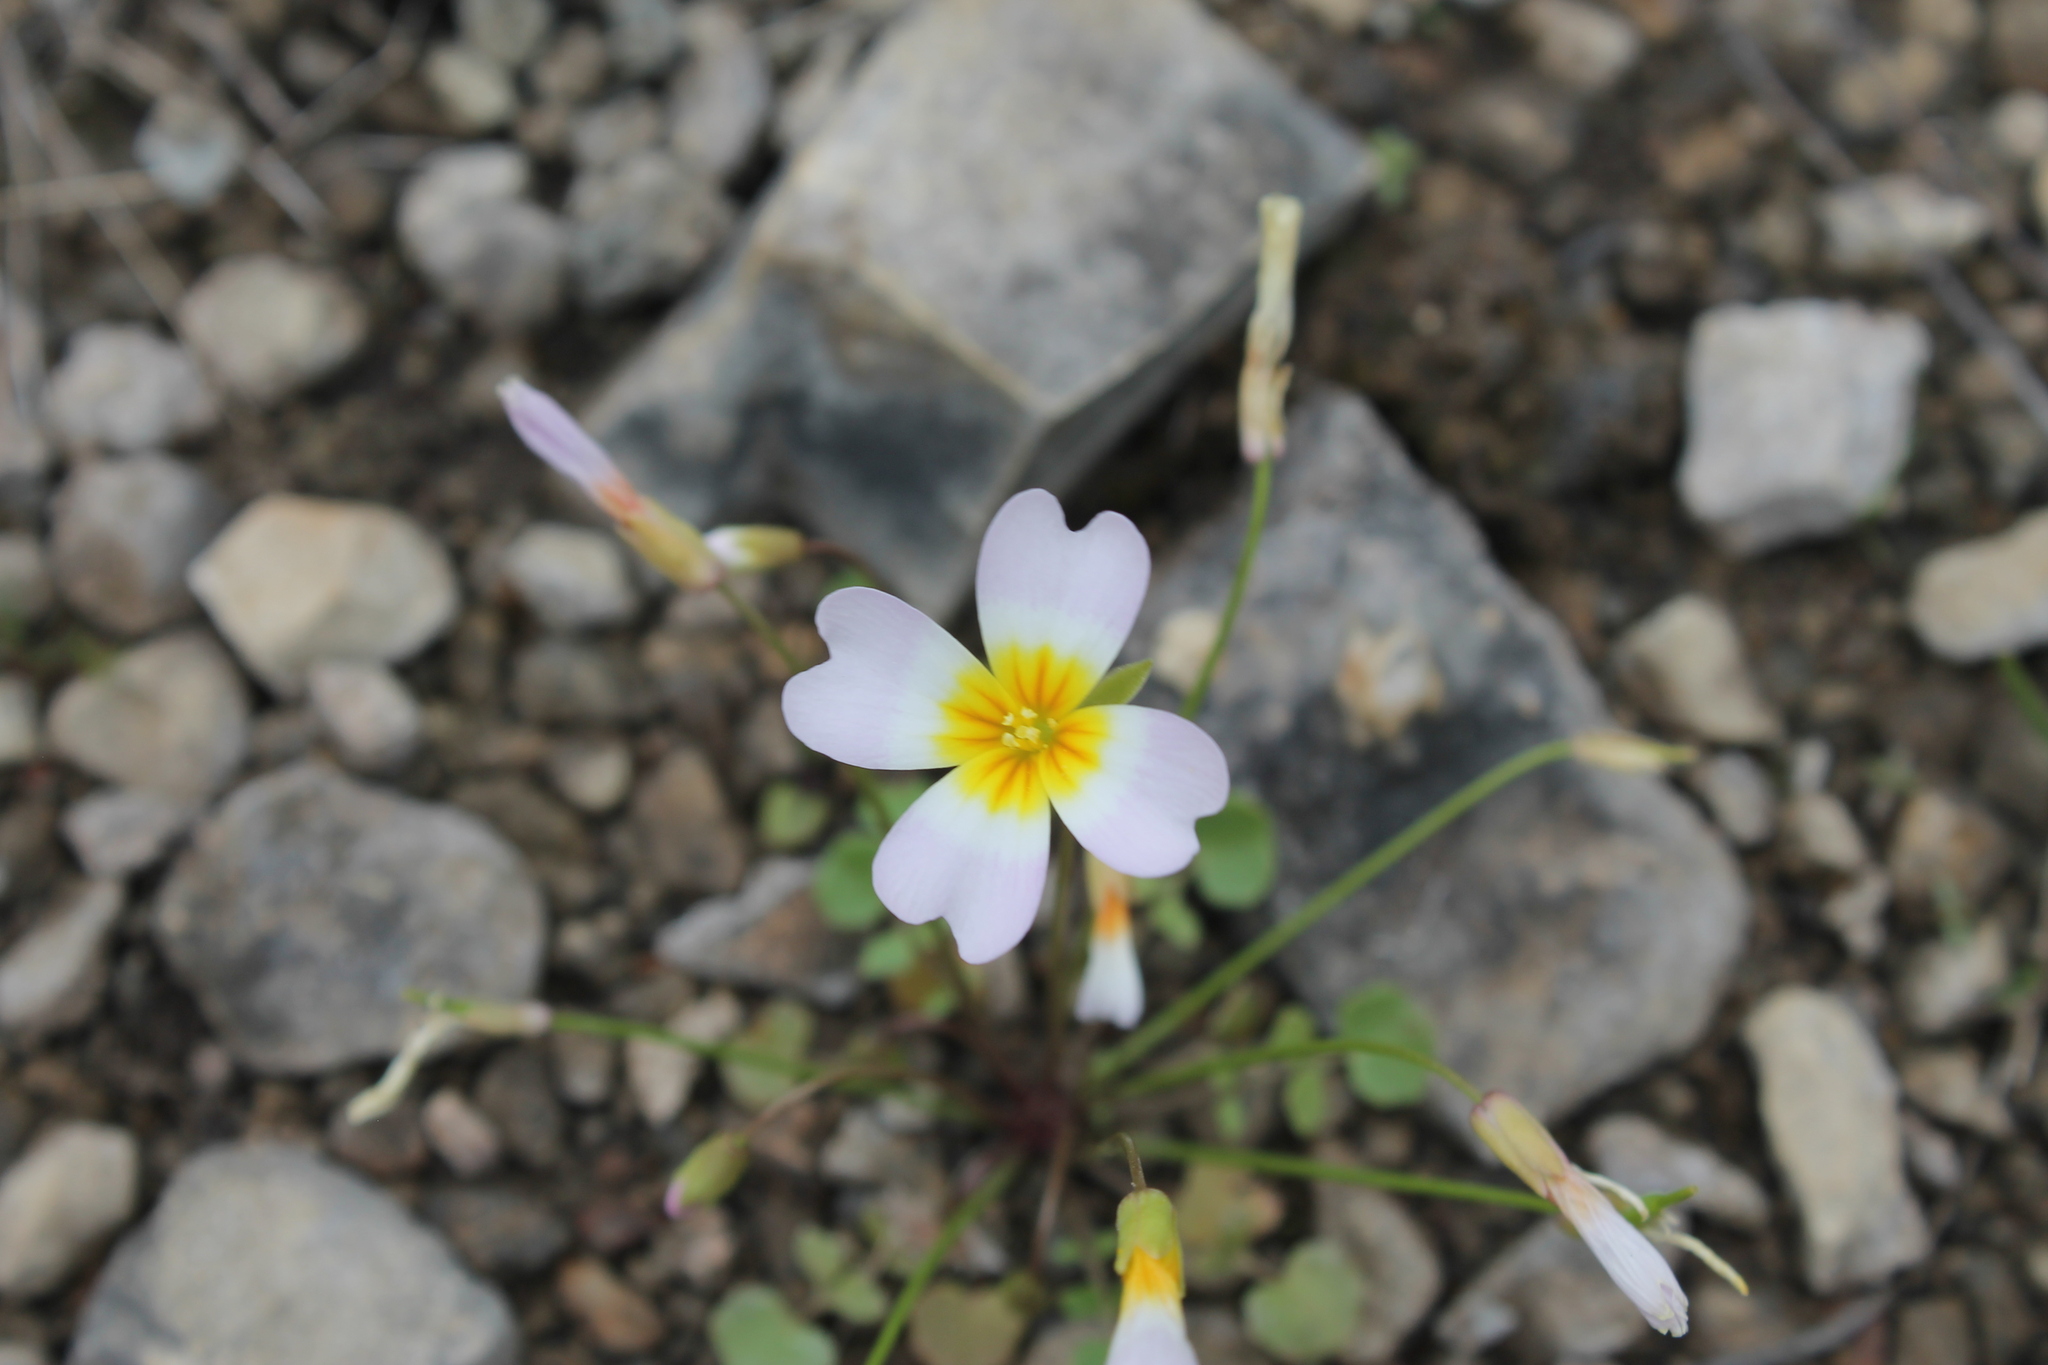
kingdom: Plantae
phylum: Tracheophyta
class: Magnoliopsida
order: Brassicales
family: Brassicaceae
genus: Leavenworthia
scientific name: Leavenworthia stylosa
